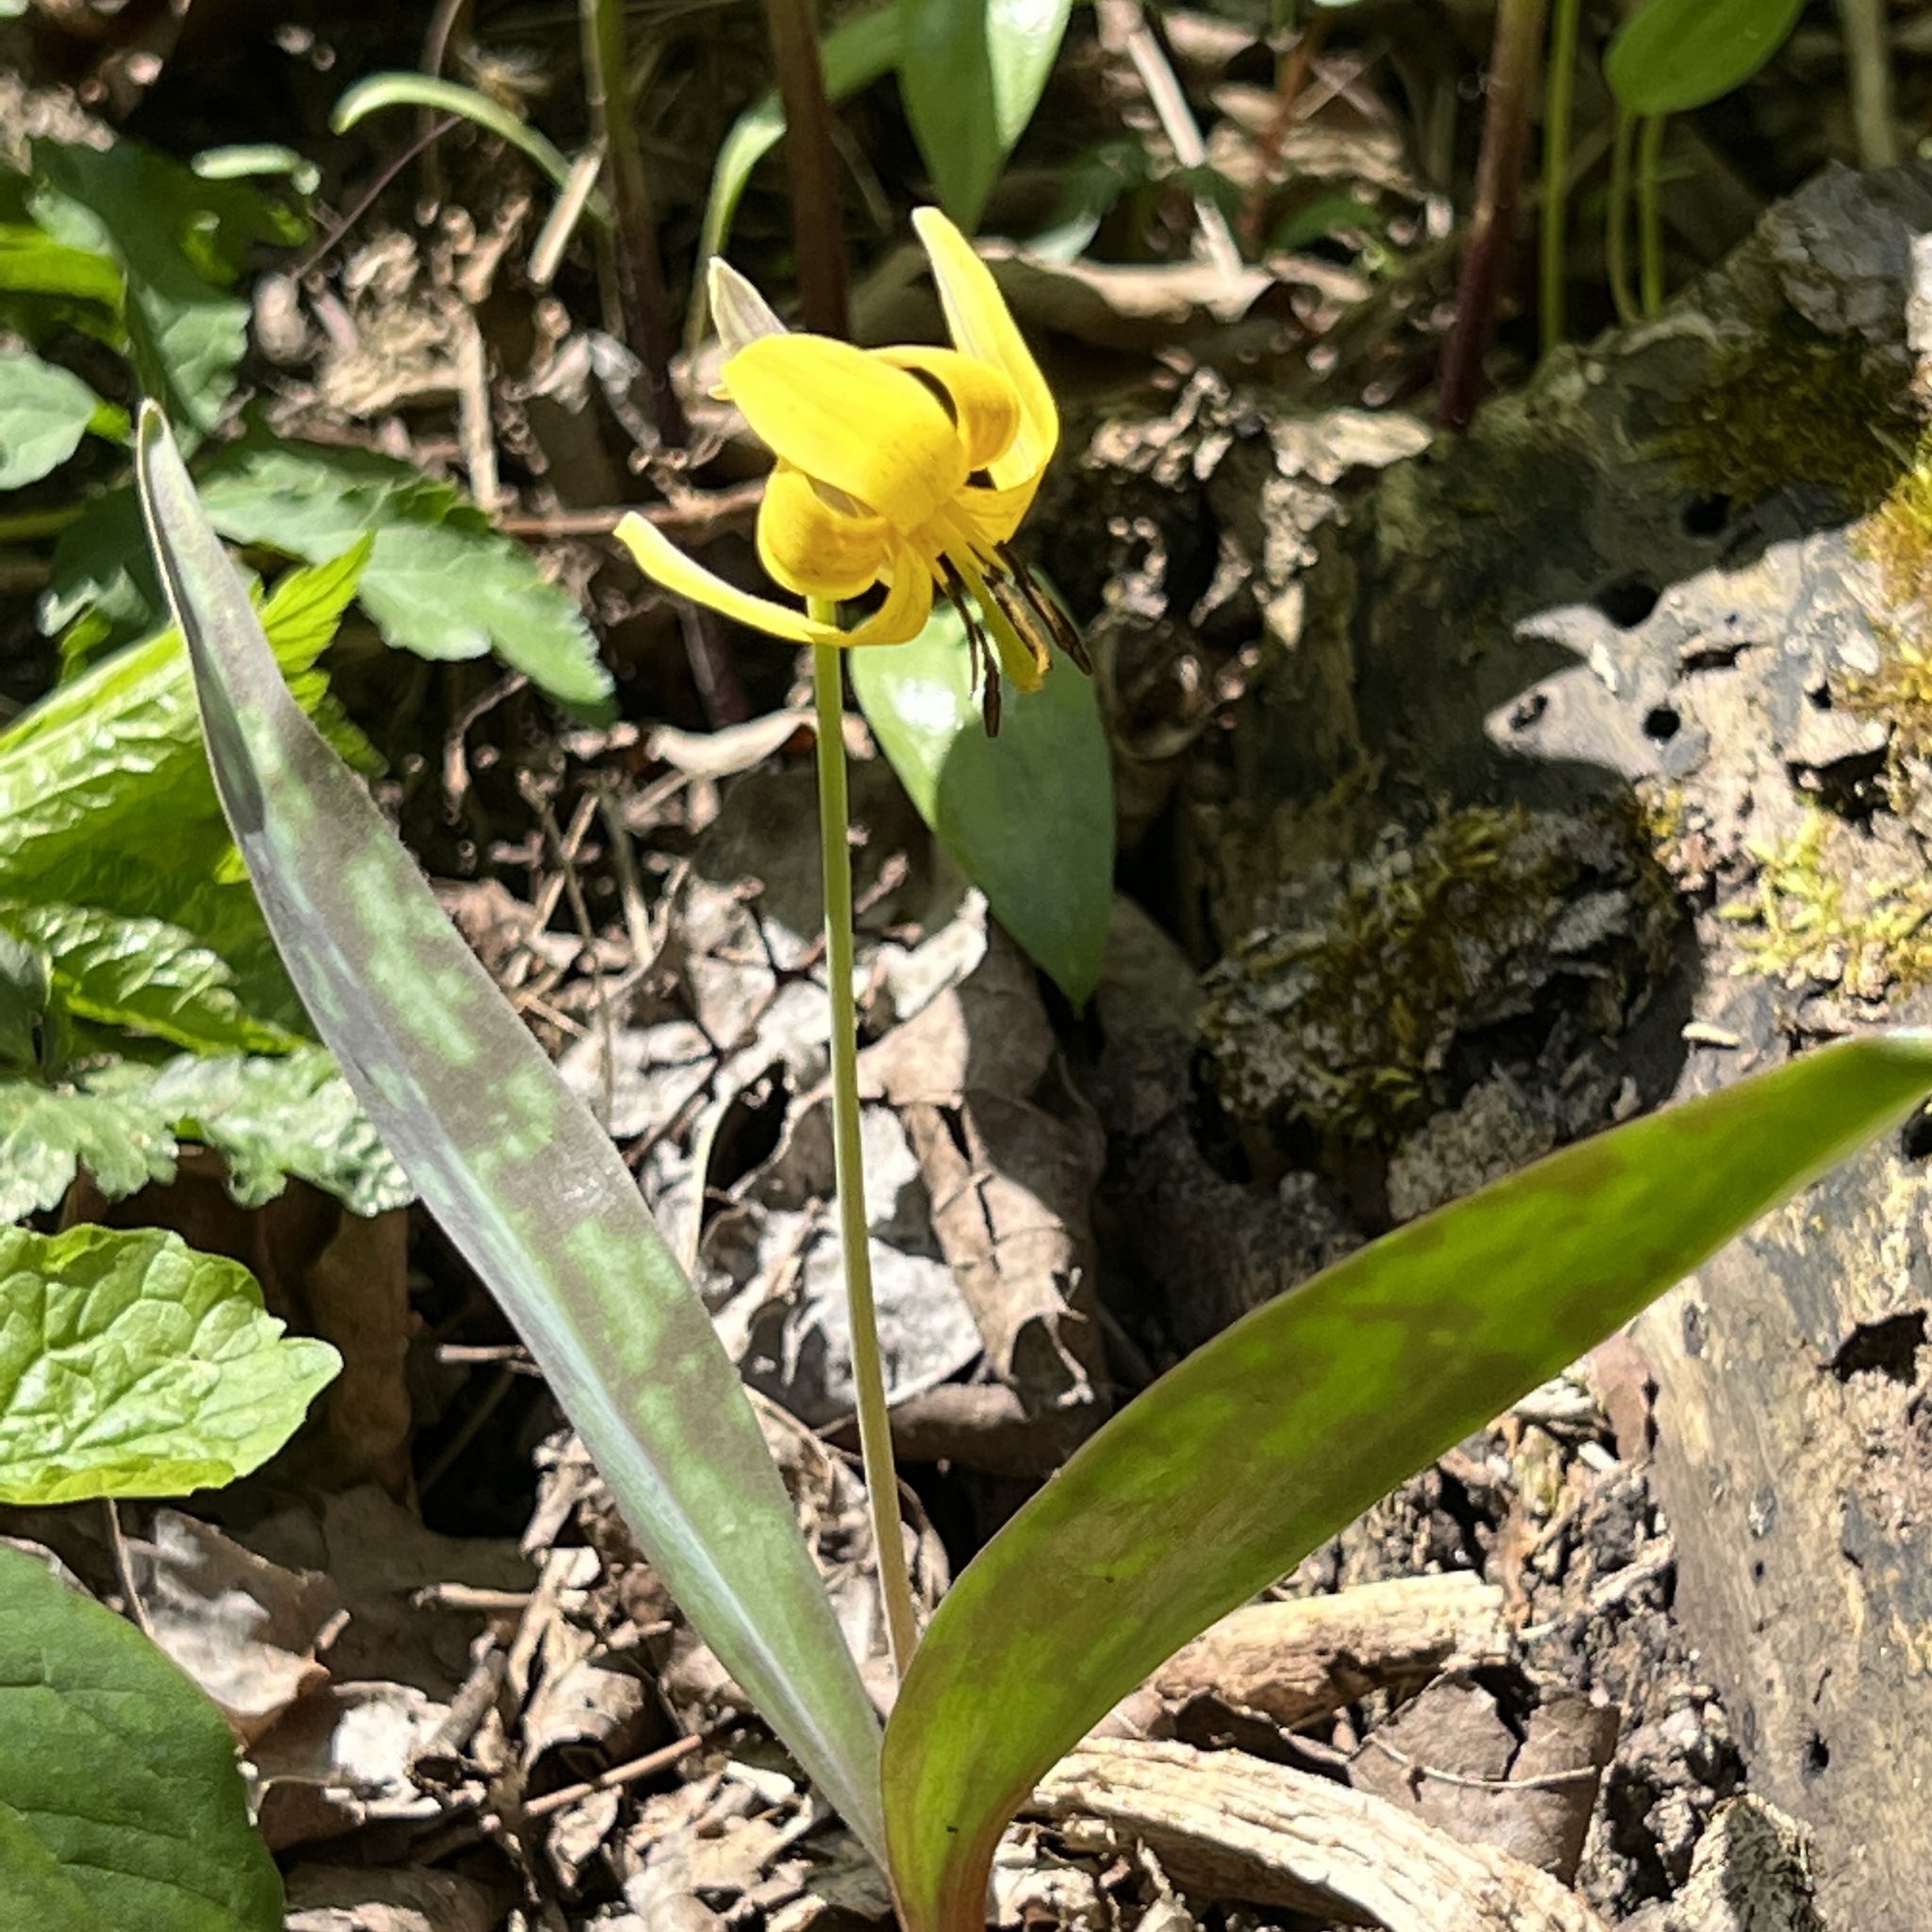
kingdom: Plantae
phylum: Tracheophyta
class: Liliopsida
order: Liliales
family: Liliaceae
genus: Erythronium
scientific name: Erythronium americanum
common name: Yellow adder's-tongue
